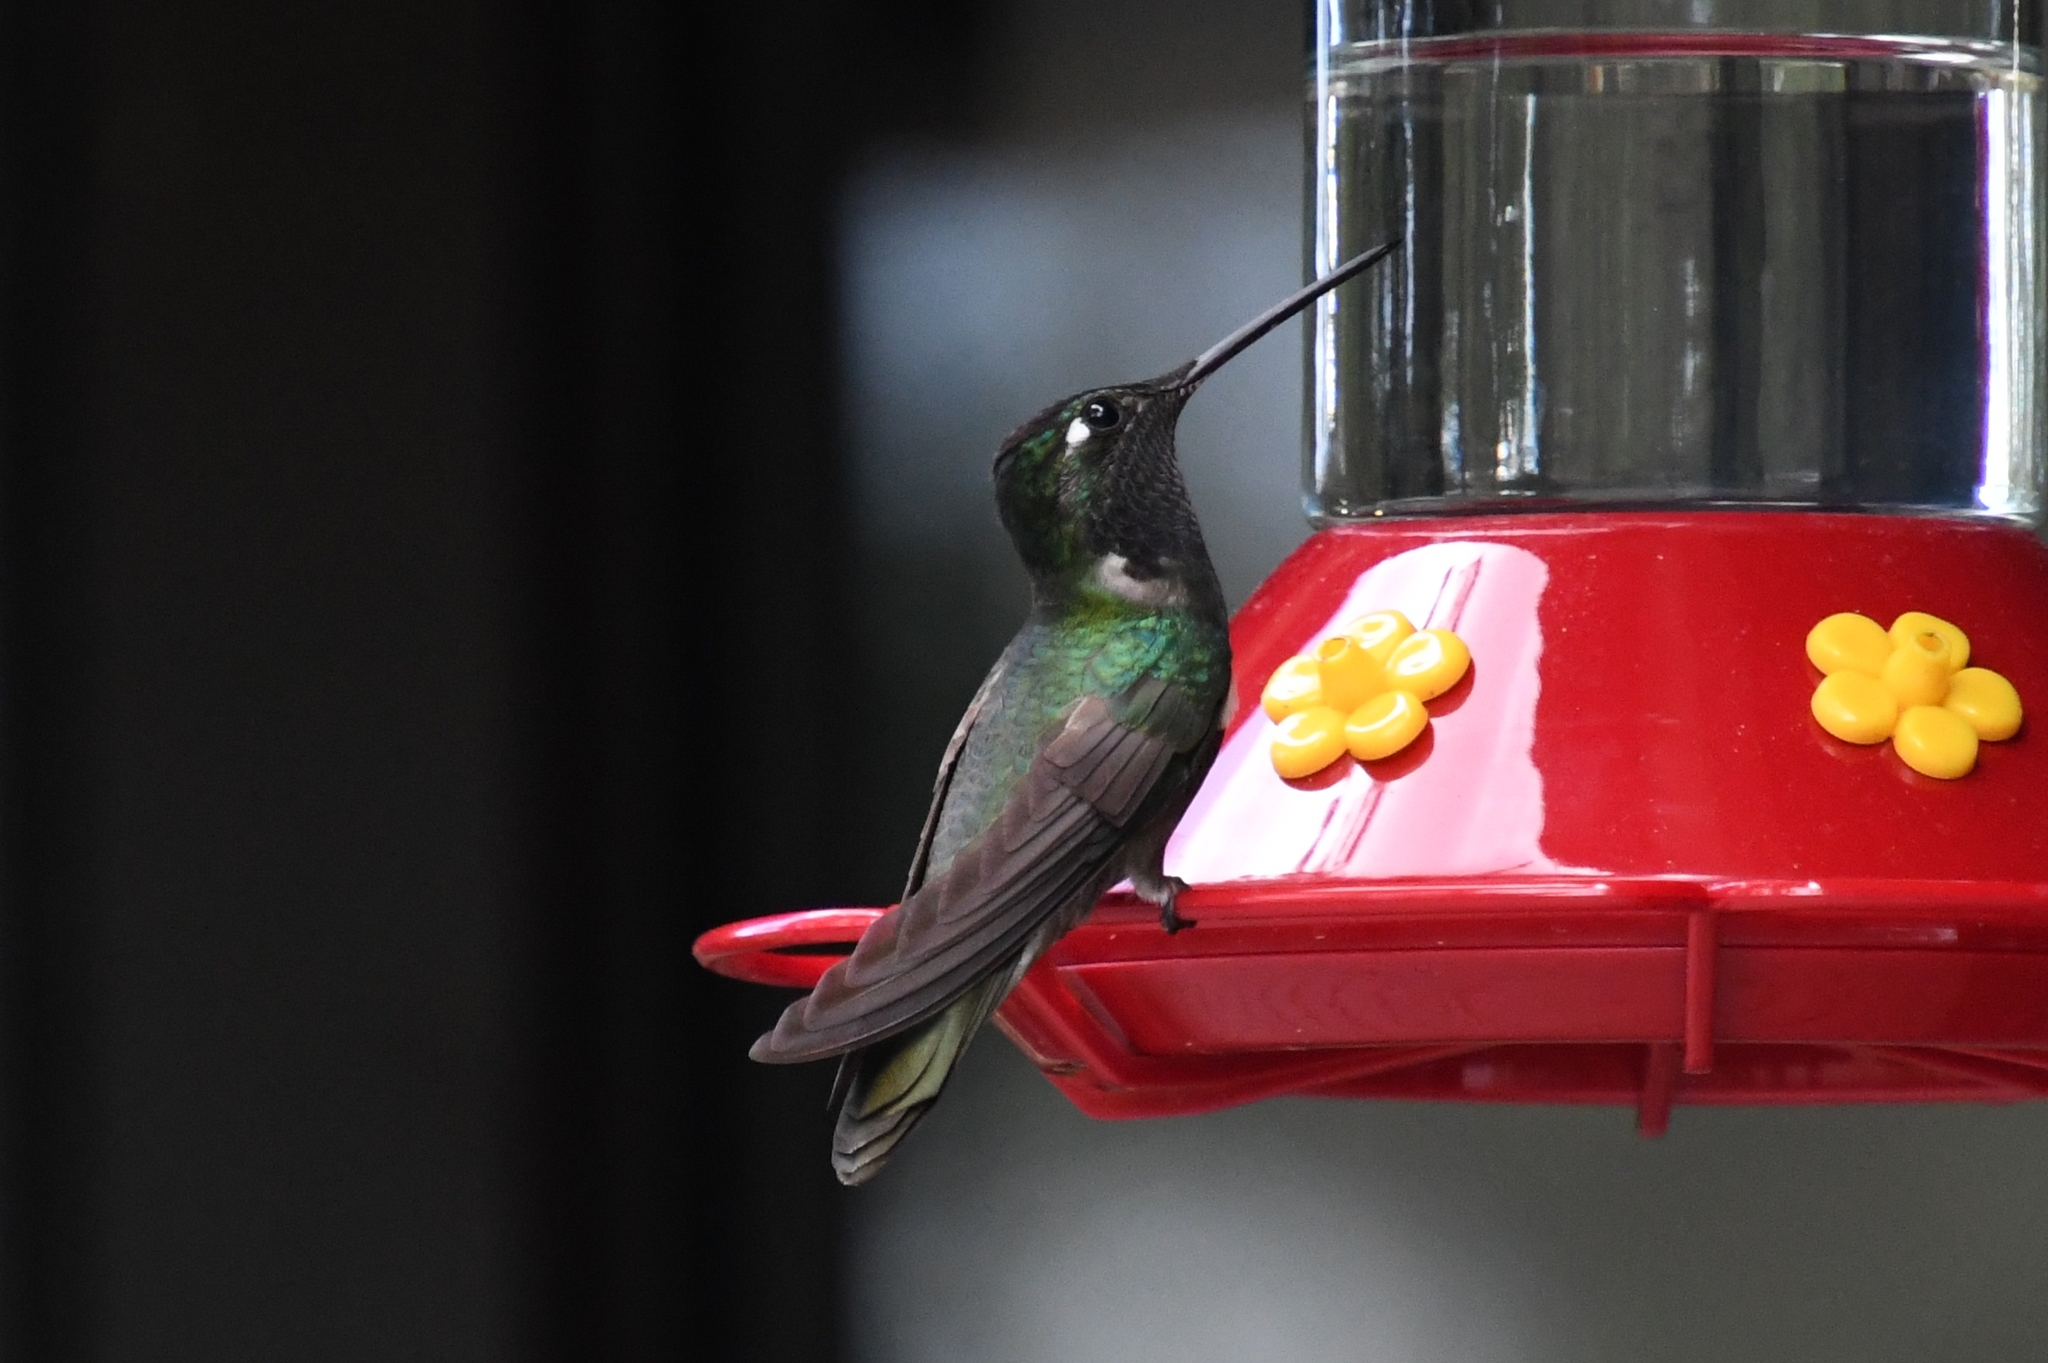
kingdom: Animalia
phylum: Chordata
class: Aves
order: Apodiformes
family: Trochilidae
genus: Eugenes
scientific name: Eugenes fulgens
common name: Magnificent hummingbird
